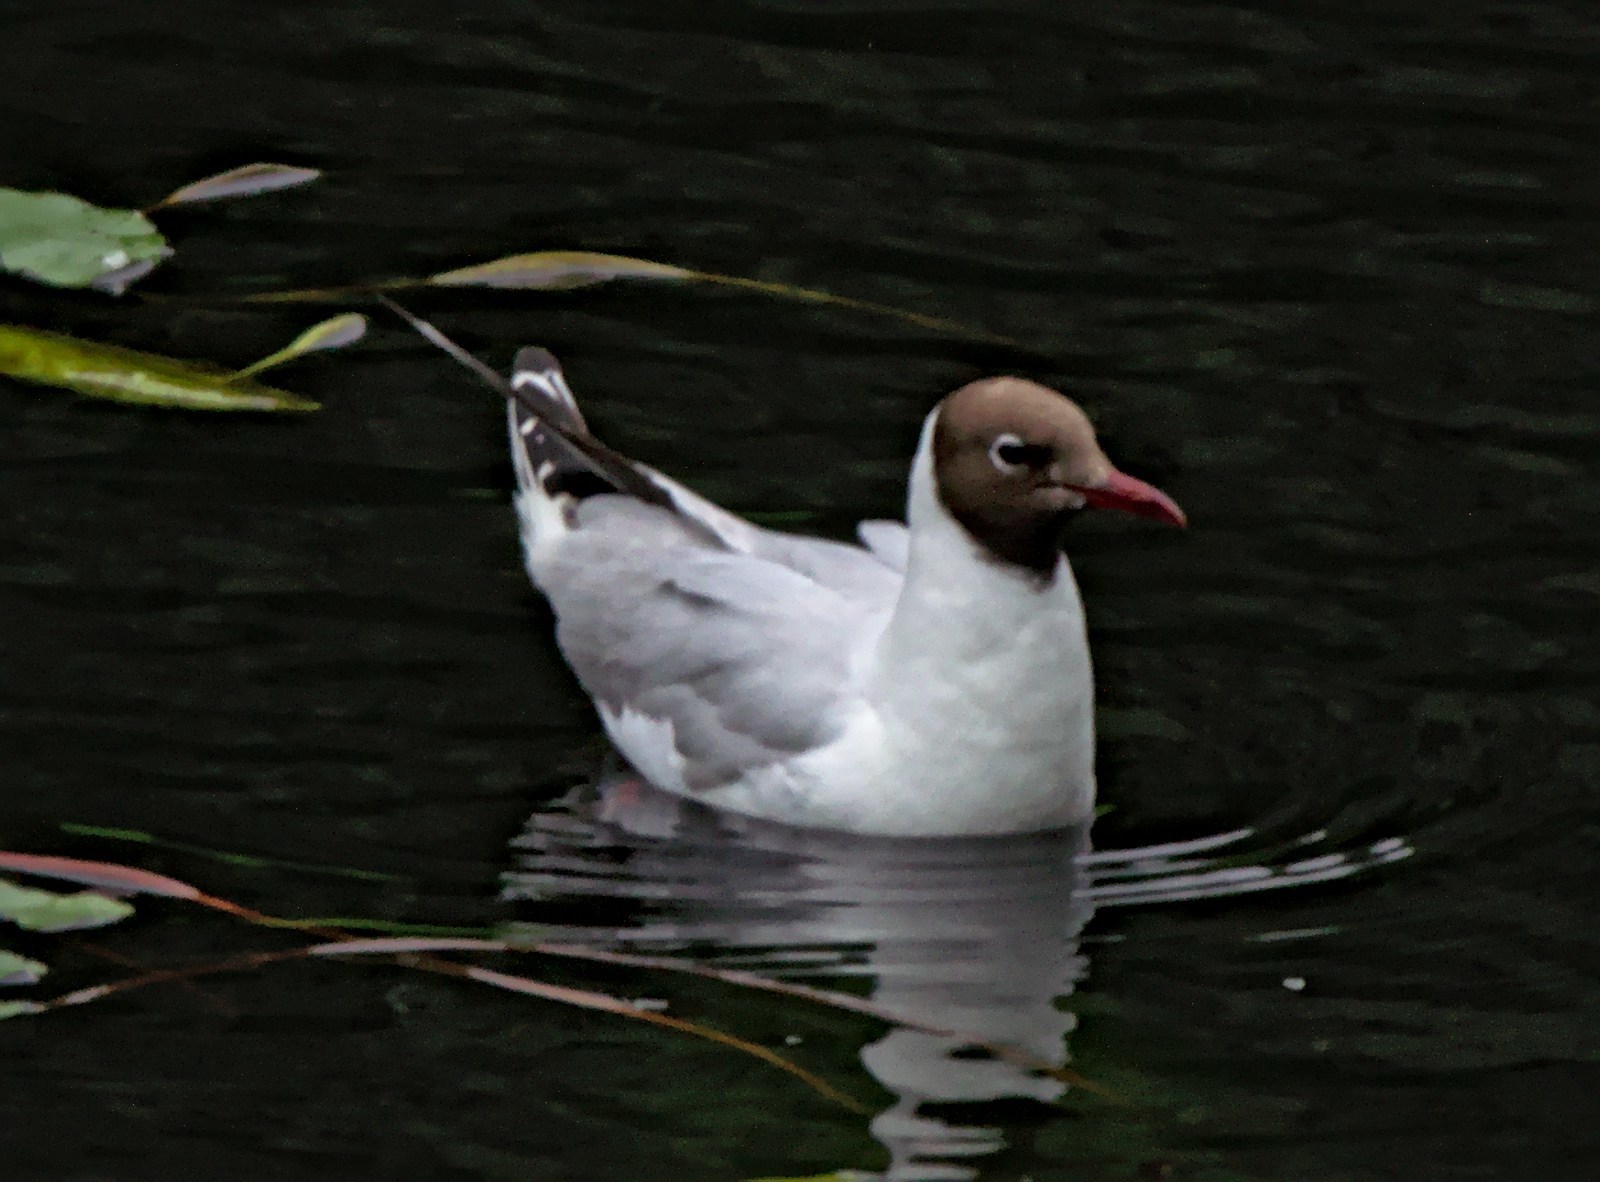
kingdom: Animalia
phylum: Chordata
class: Aves
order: Charadriiformes
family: Laridae
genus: Chroicocephalus
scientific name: Chroicocephalus ridibundus
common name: Black-headed gull
